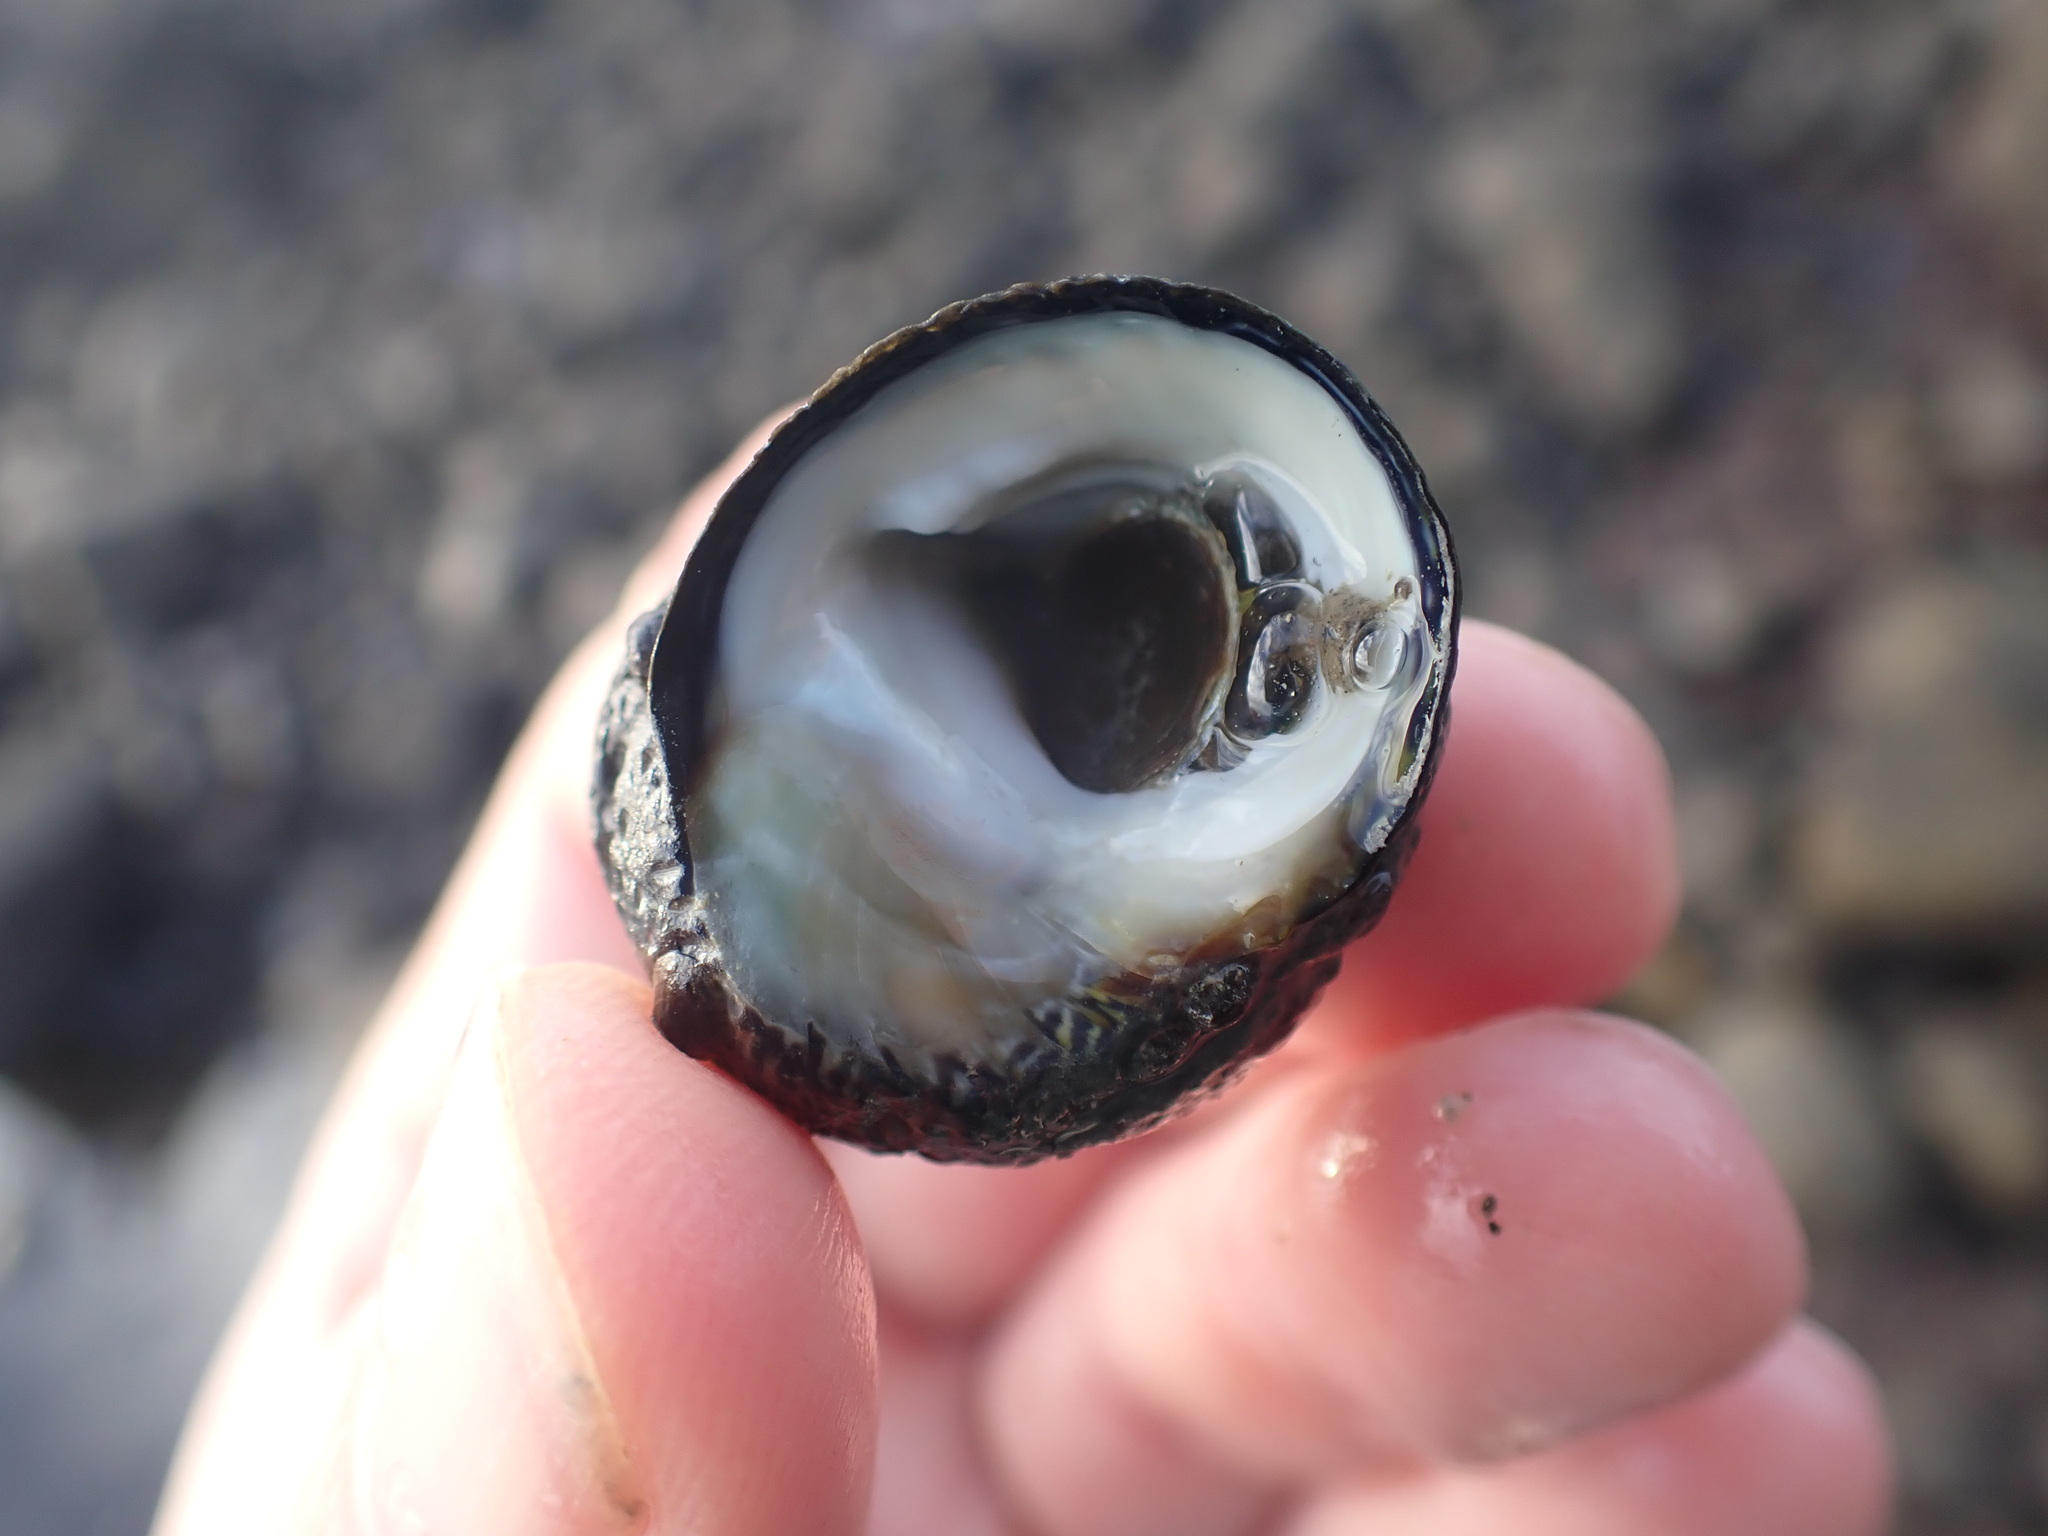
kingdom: Animalia
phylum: Mollusca
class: Gastropoda
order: Trochida
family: Trochidae
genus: Diloma
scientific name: Diloma aethiops
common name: Scorched monodont
